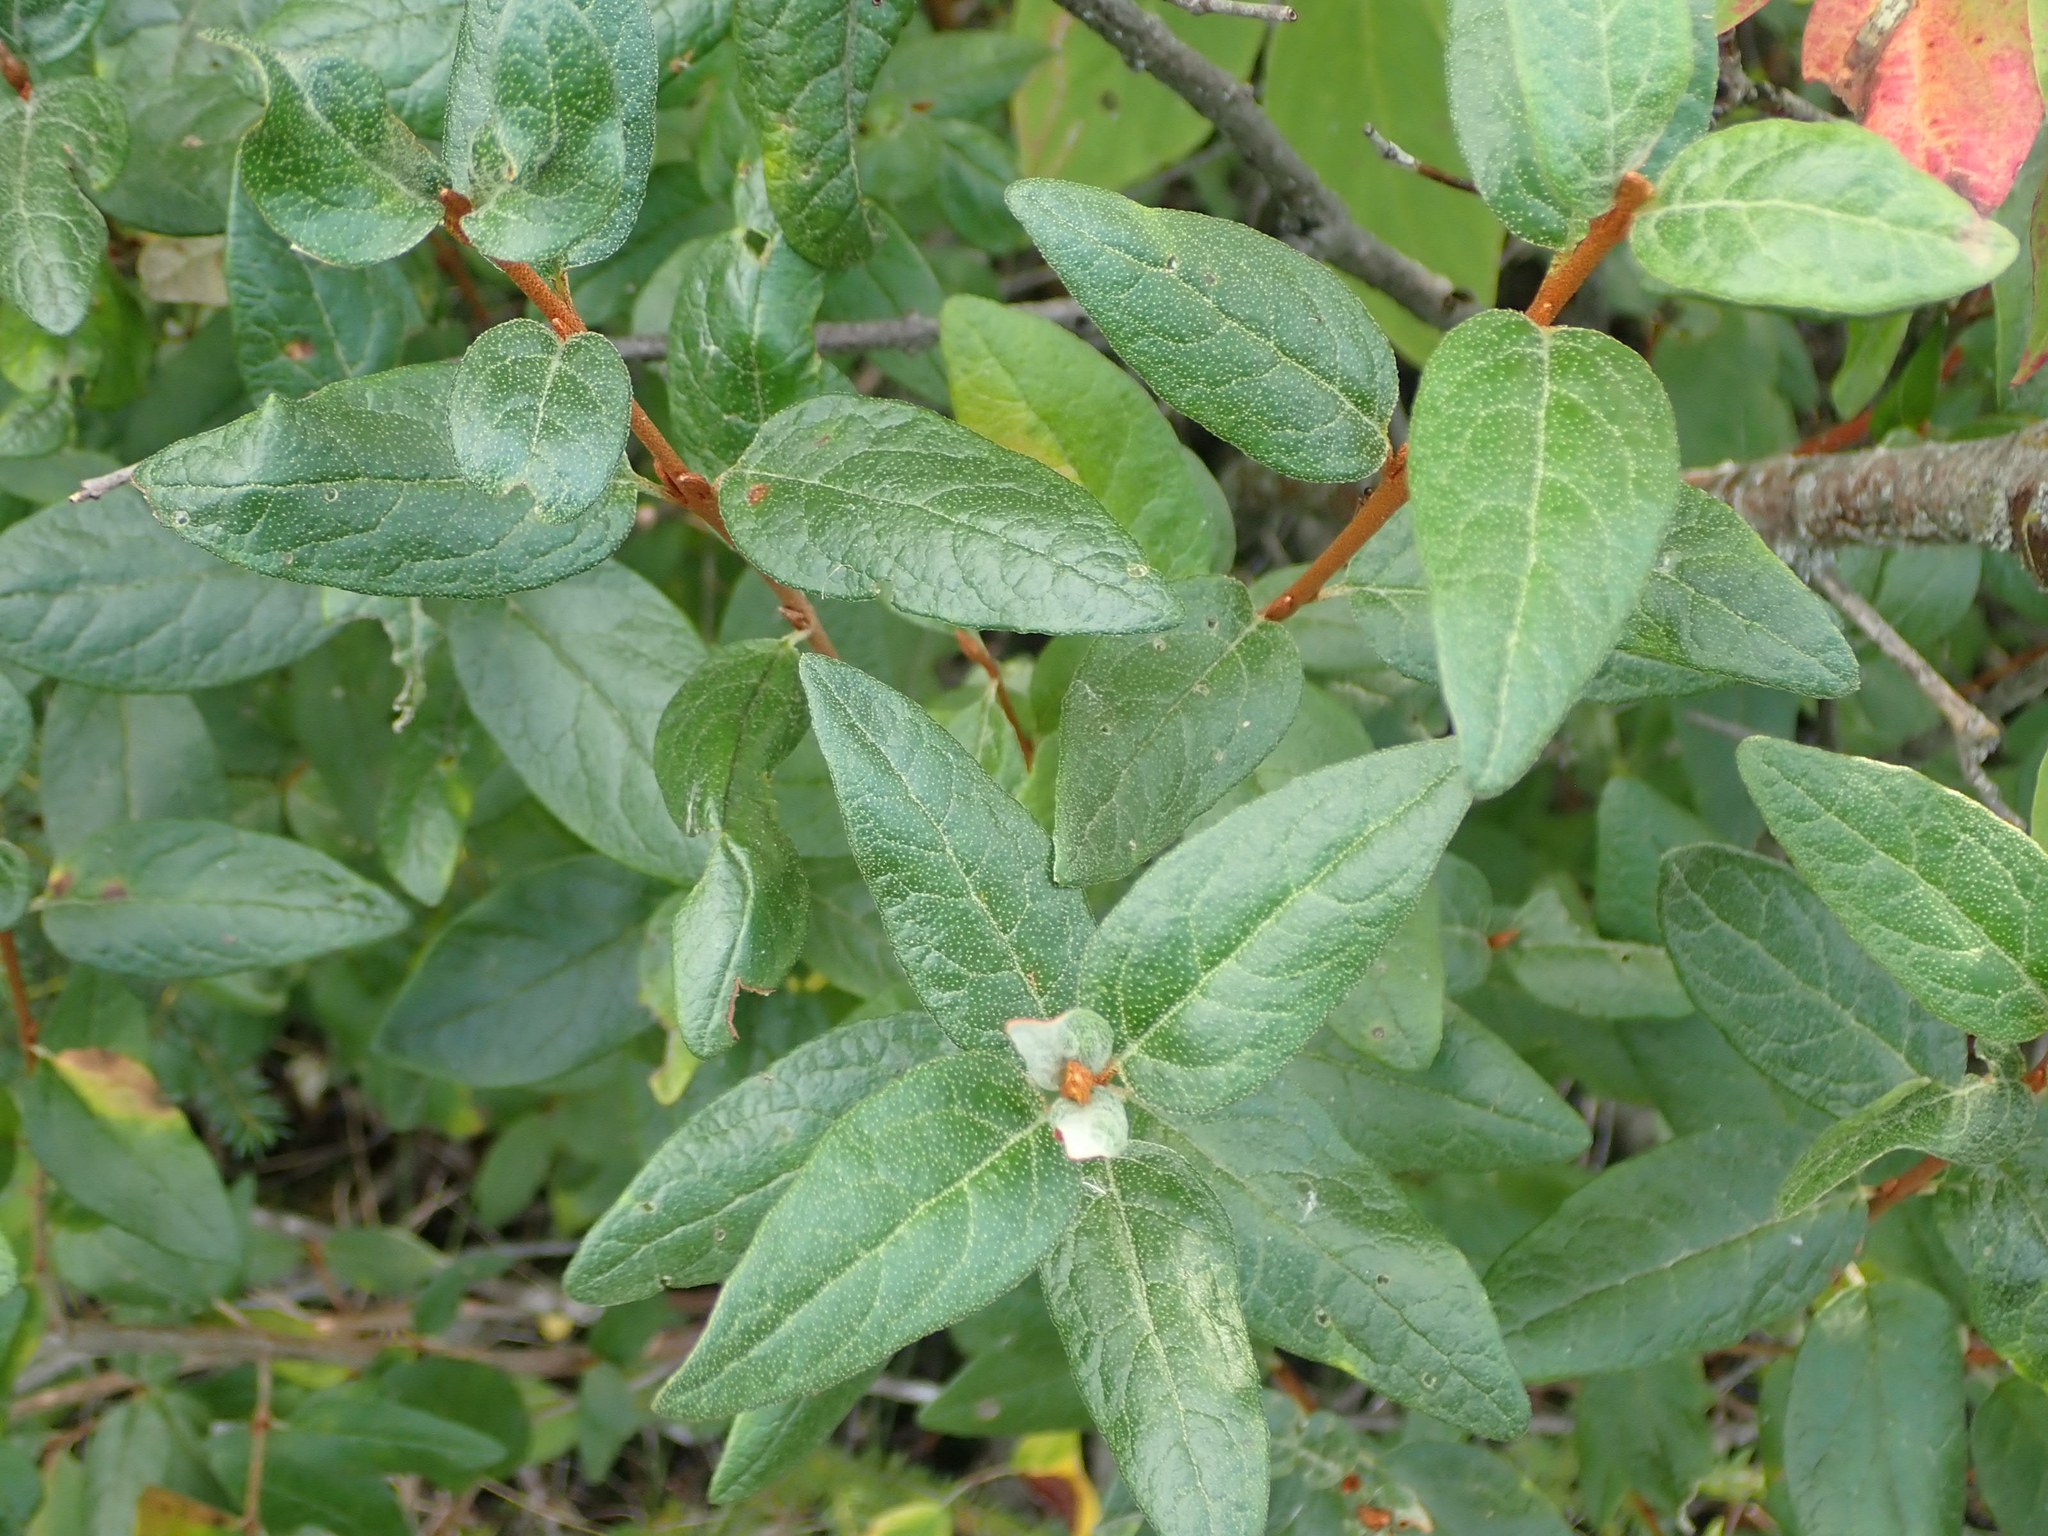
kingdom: Plantae
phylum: Tracheophyta
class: Magnoliopsida
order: Rosales
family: Elaeagnaceae
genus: Shepherdia
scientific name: Shepherdia canadensis
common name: Soapberry
